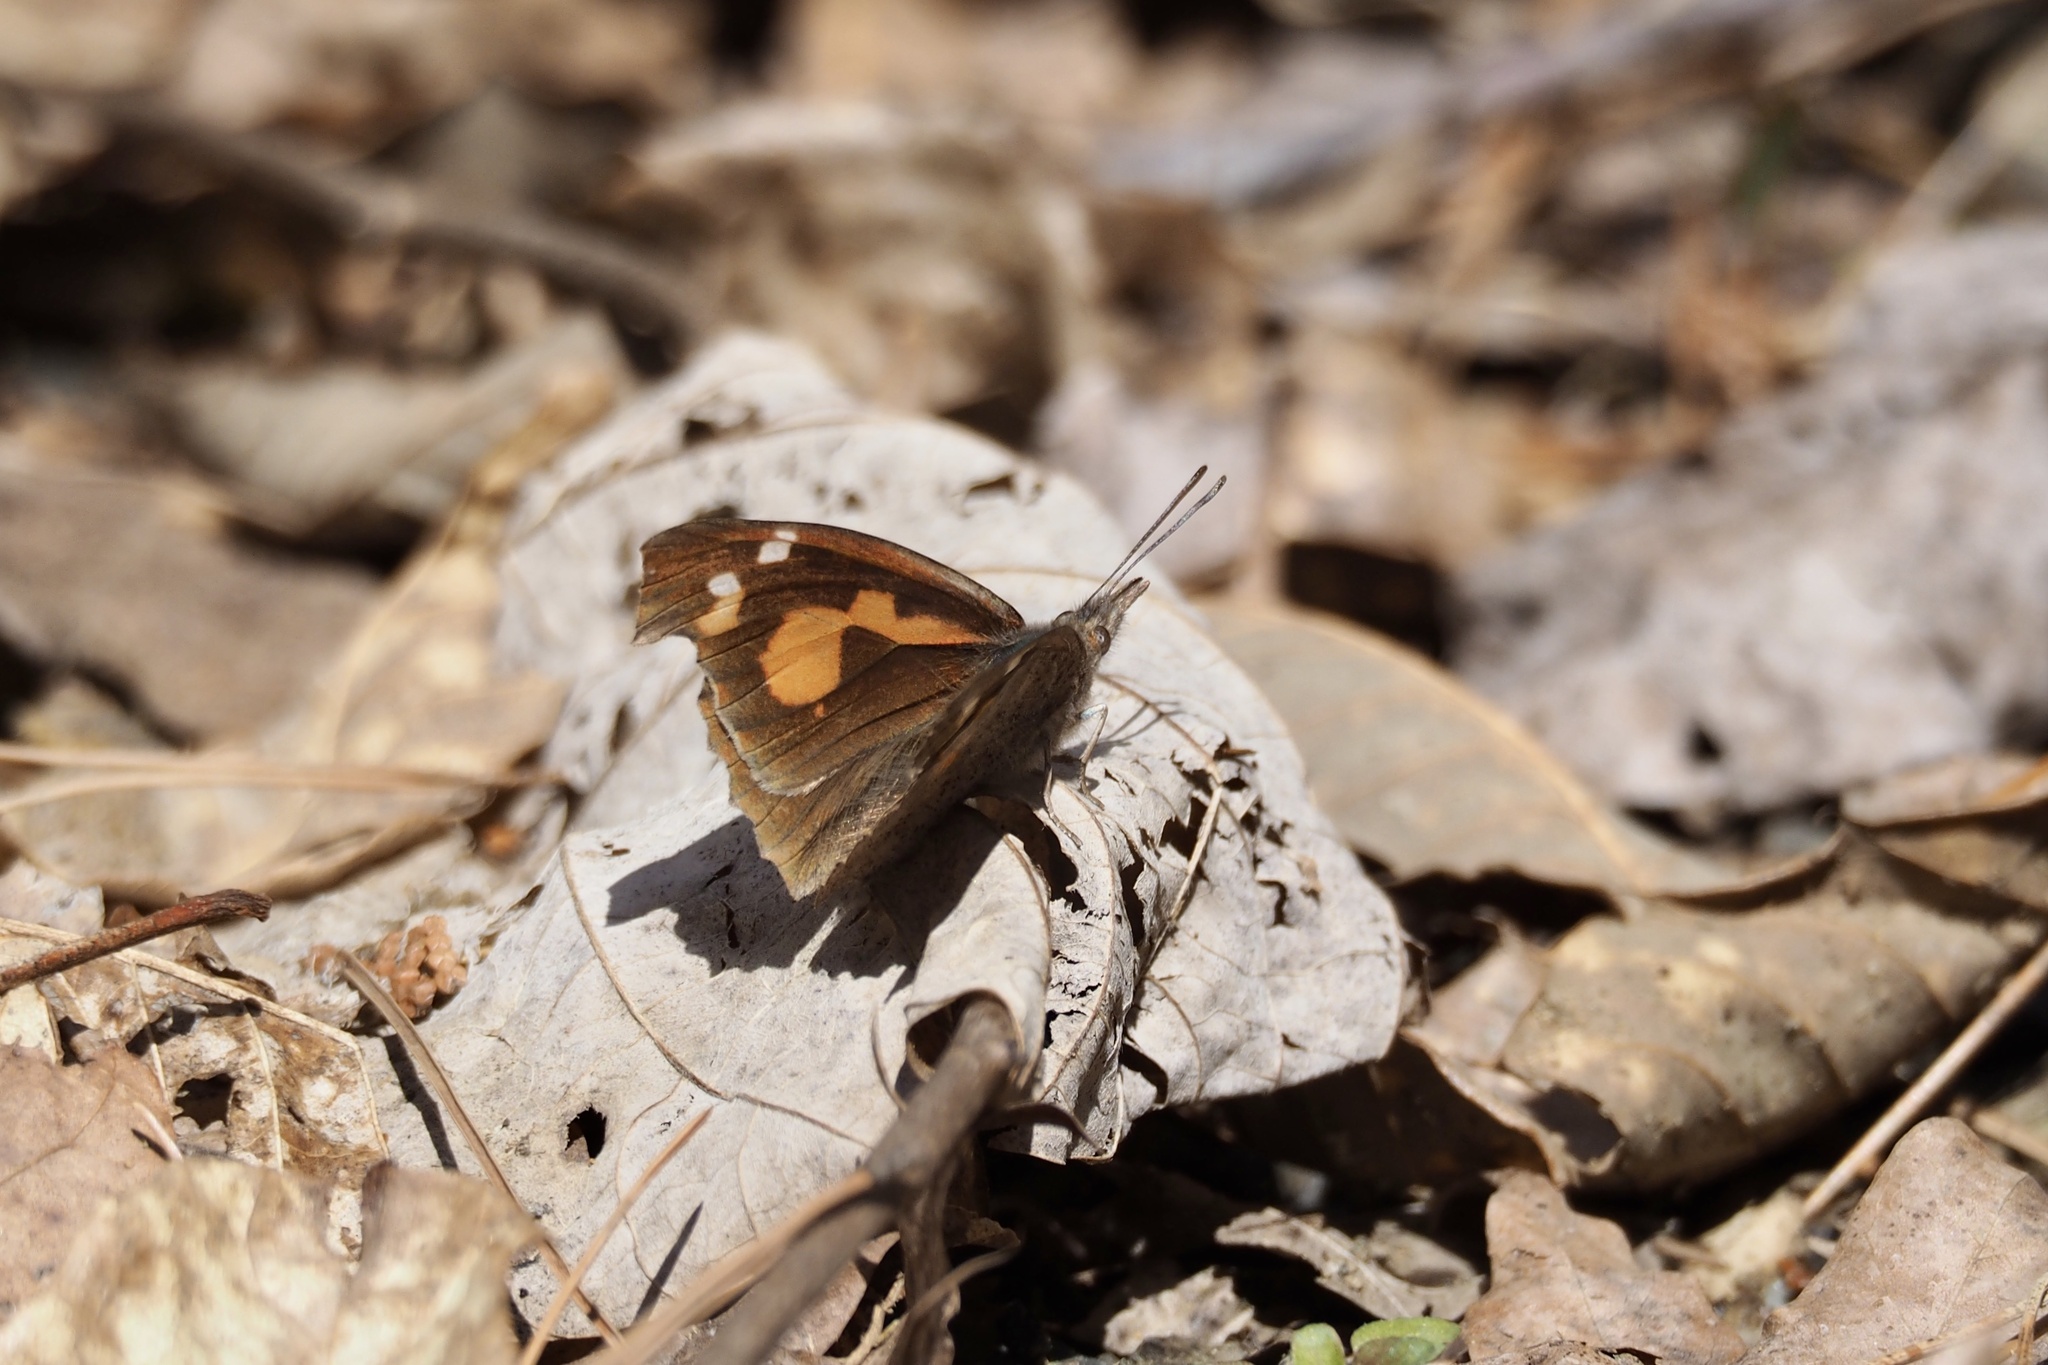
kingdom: Animalia
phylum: Arthropoda
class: Insecta
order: Lepidoptera
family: Nymphalidae
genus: Libythea
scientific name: Libythea lepita
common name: Common beak
